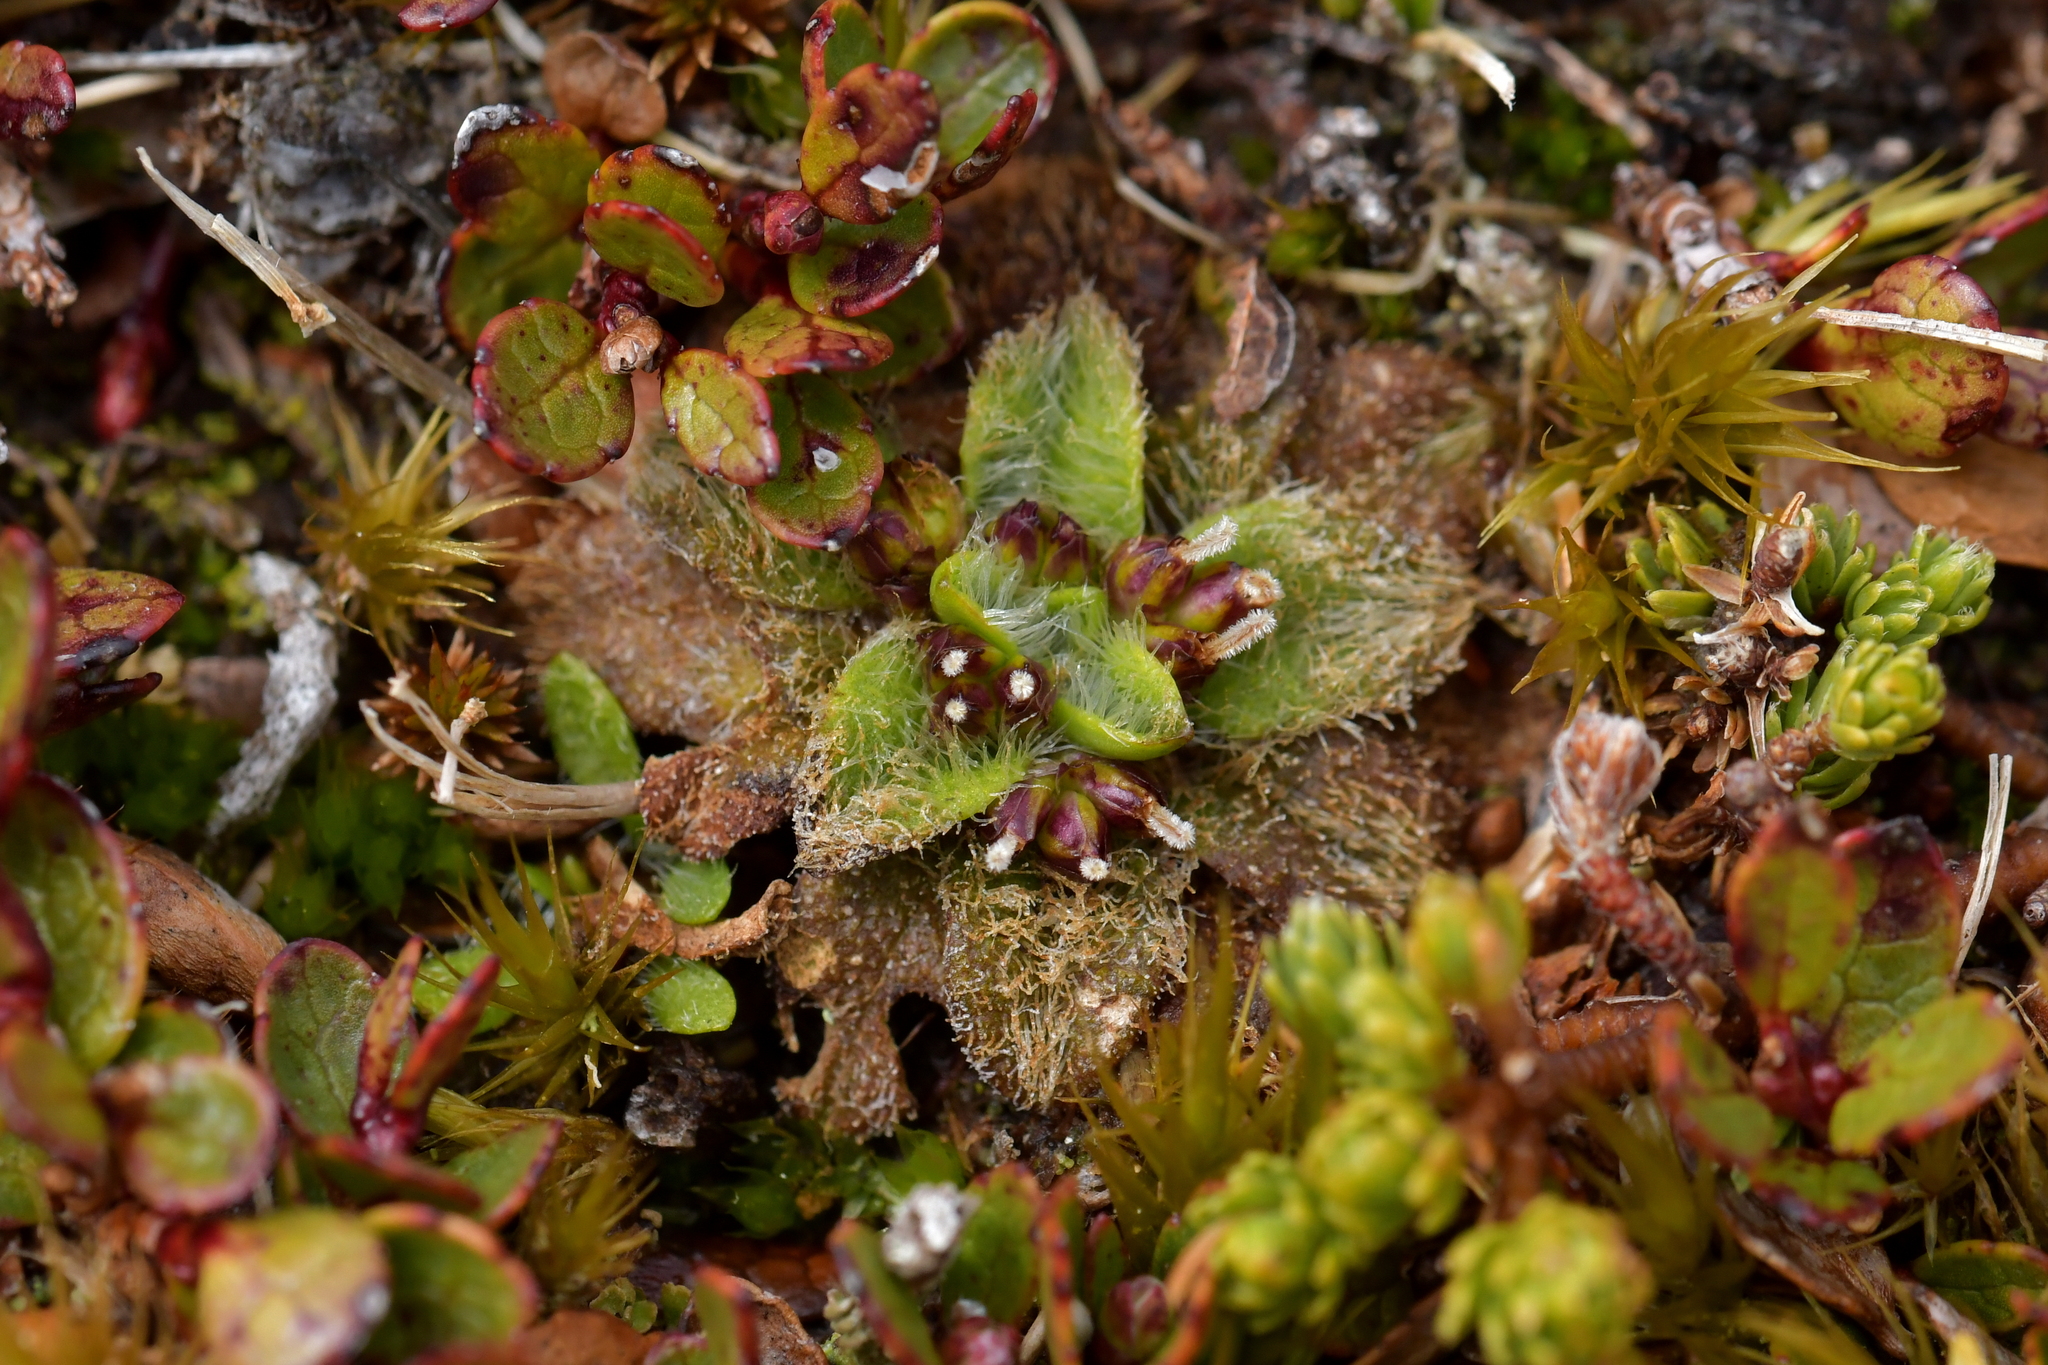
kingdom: Plantae
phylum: Tracheophyta
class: Magnoliopsida
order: Lamiales
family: Plantaginaceae
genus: Plantago
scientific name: Plantago lanigera
